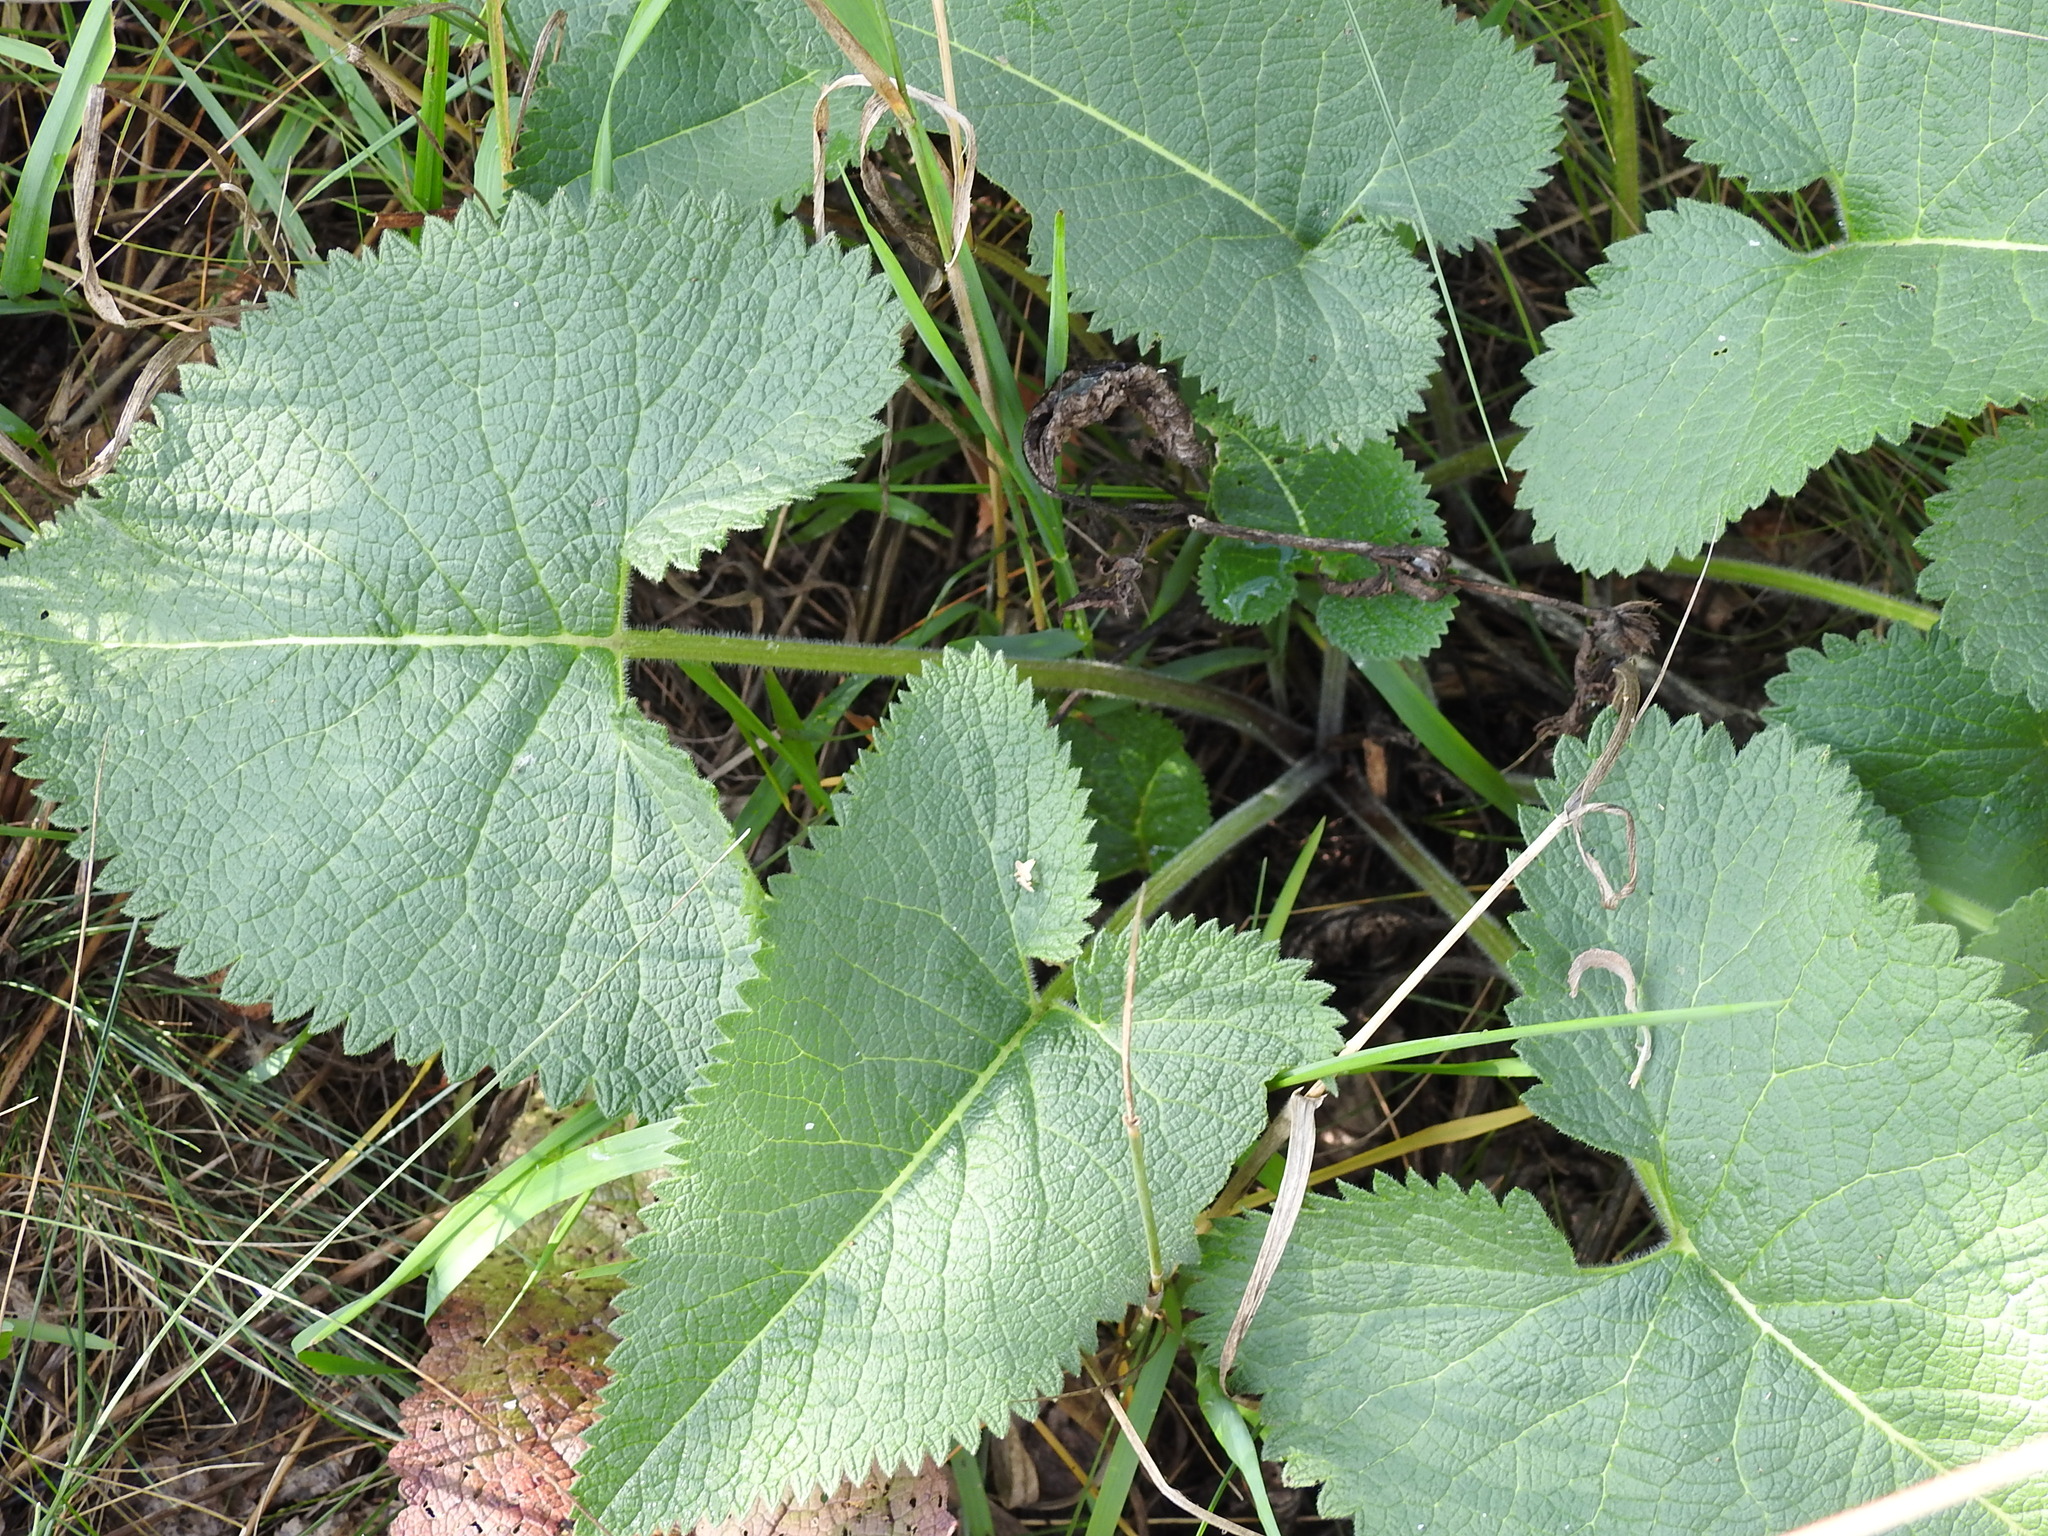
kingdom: Plantae
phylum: Tracheophyta
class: Magnoliopsida
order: Lamiales
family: Lamiaceae
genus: Phlomoides
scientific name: Phlomoides tuberosa
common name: Tuberous jerusalem sage
